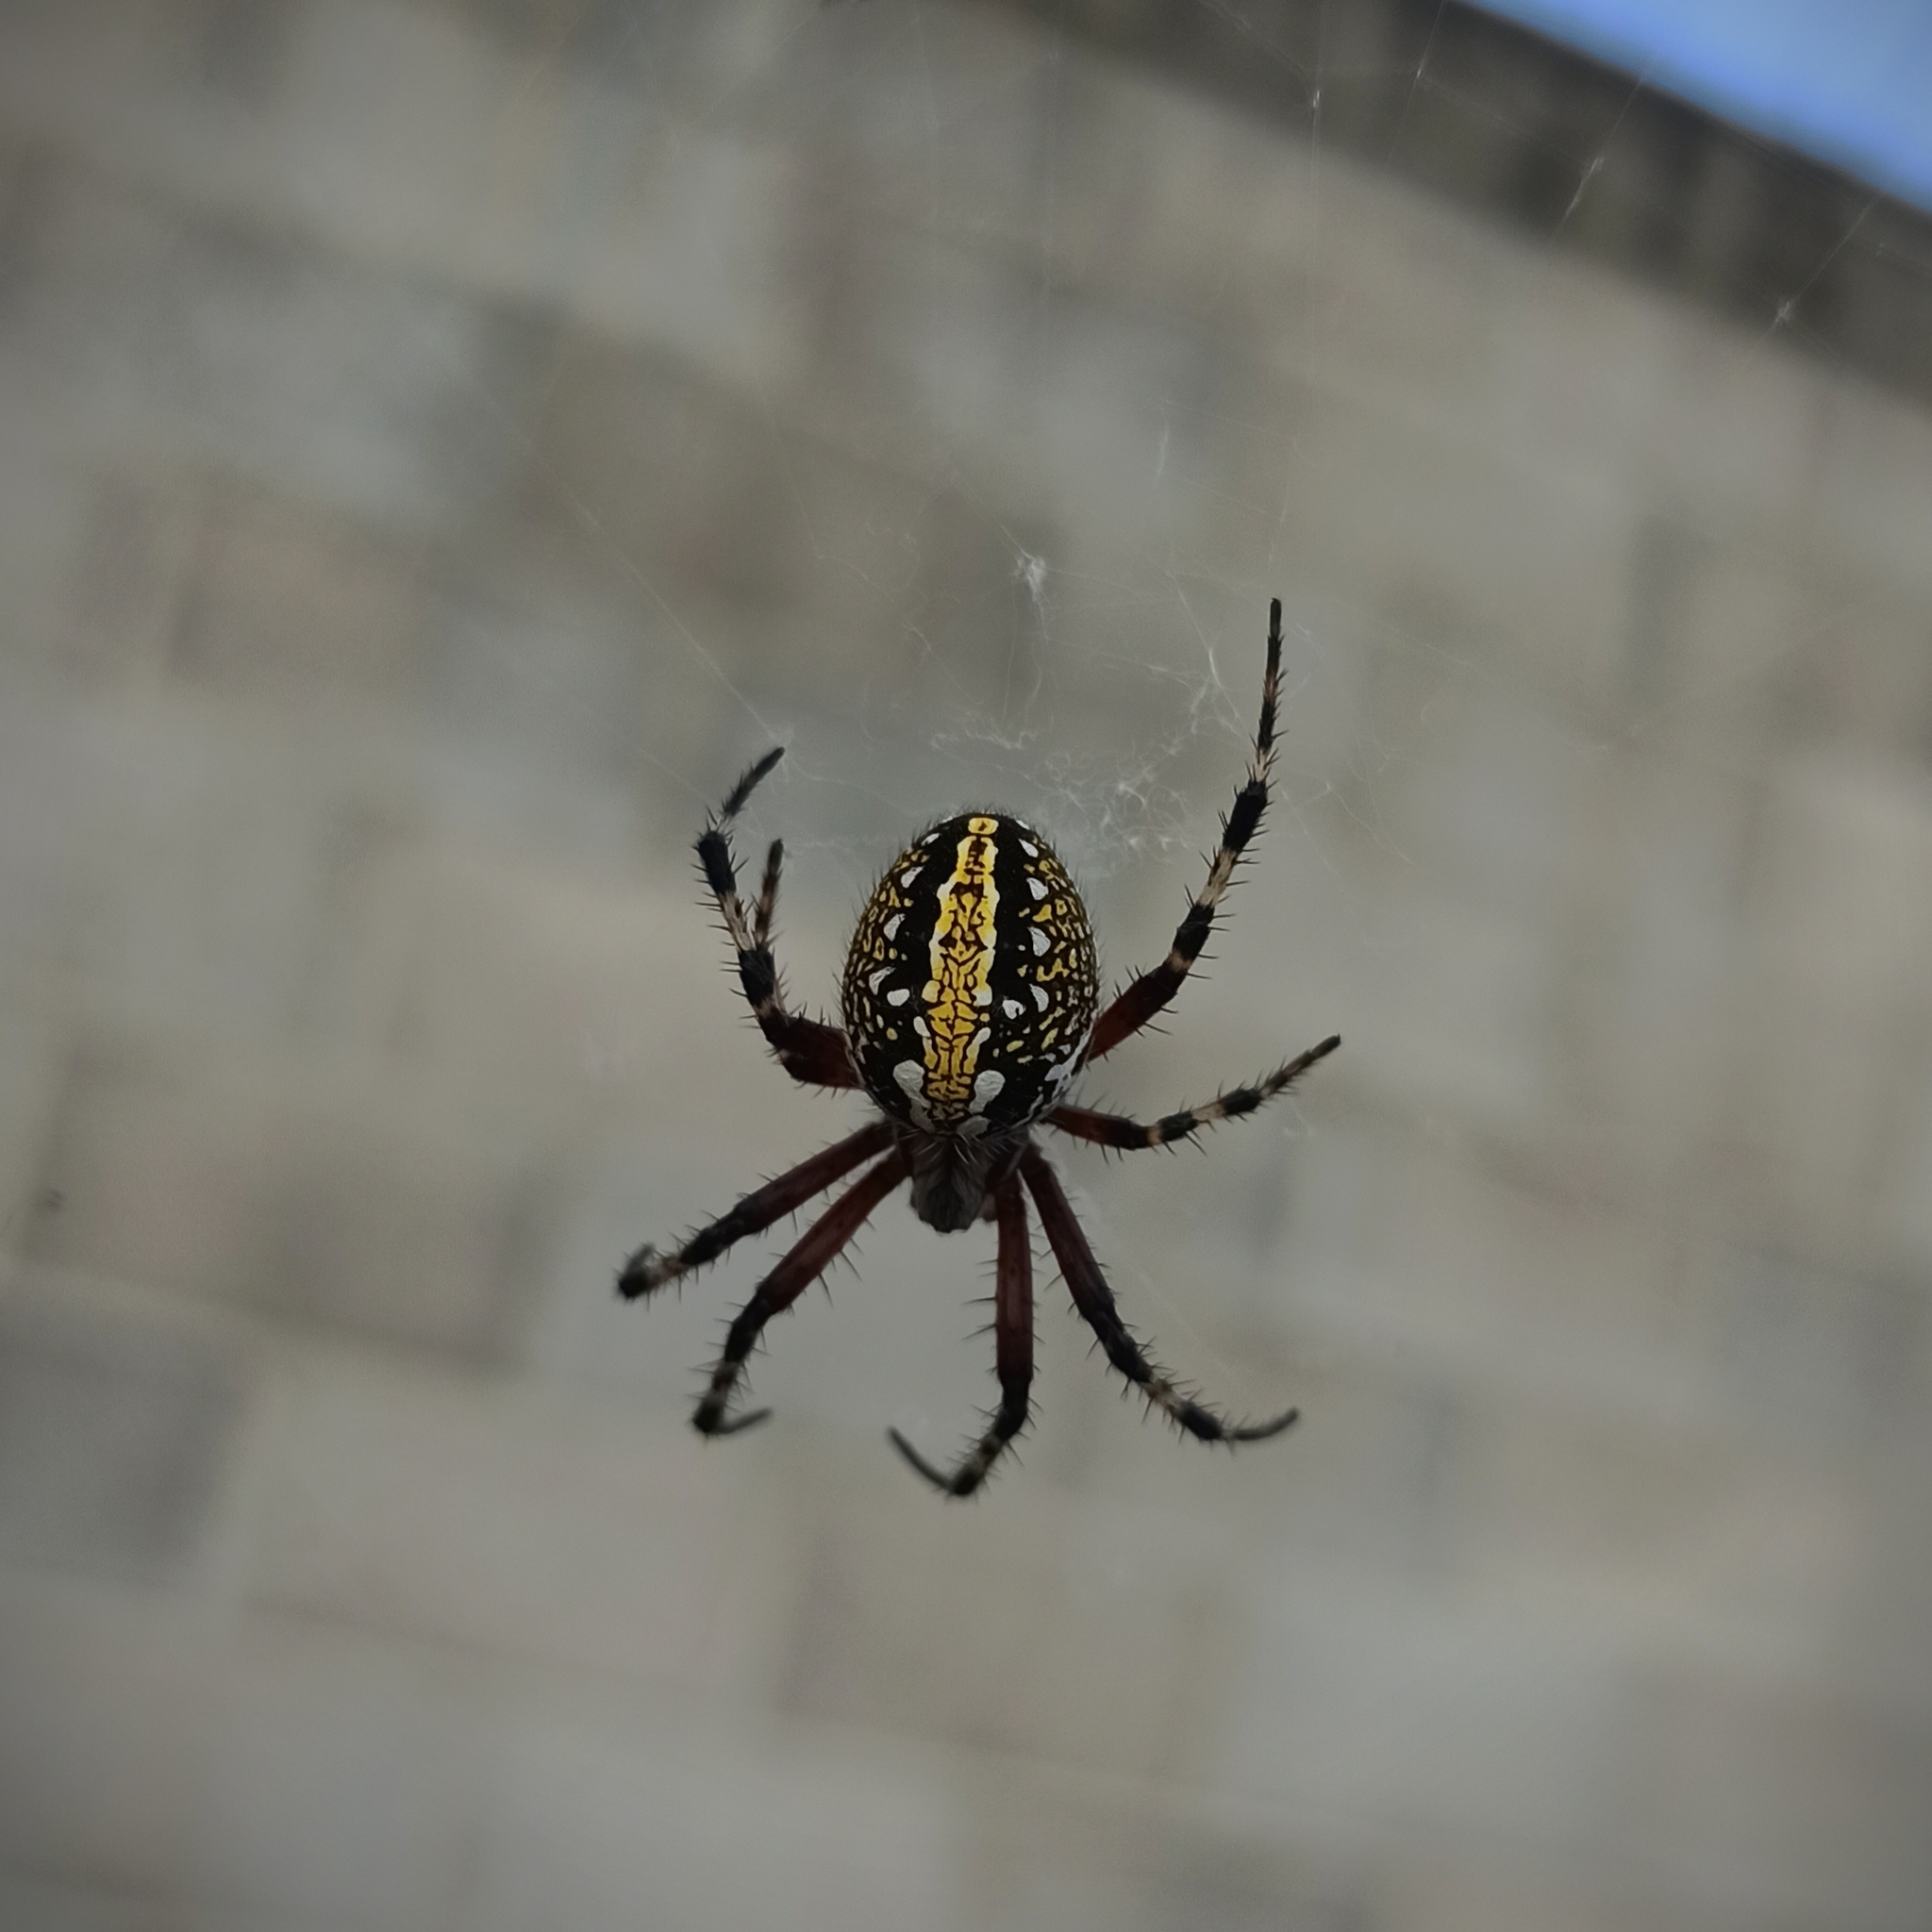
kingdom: Animalia
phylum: Arthropoda
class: Arachnida
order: Araneae
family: Araneidae
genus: Neoscona
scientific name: Neoscona oaxacensis
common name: Orb weavers
